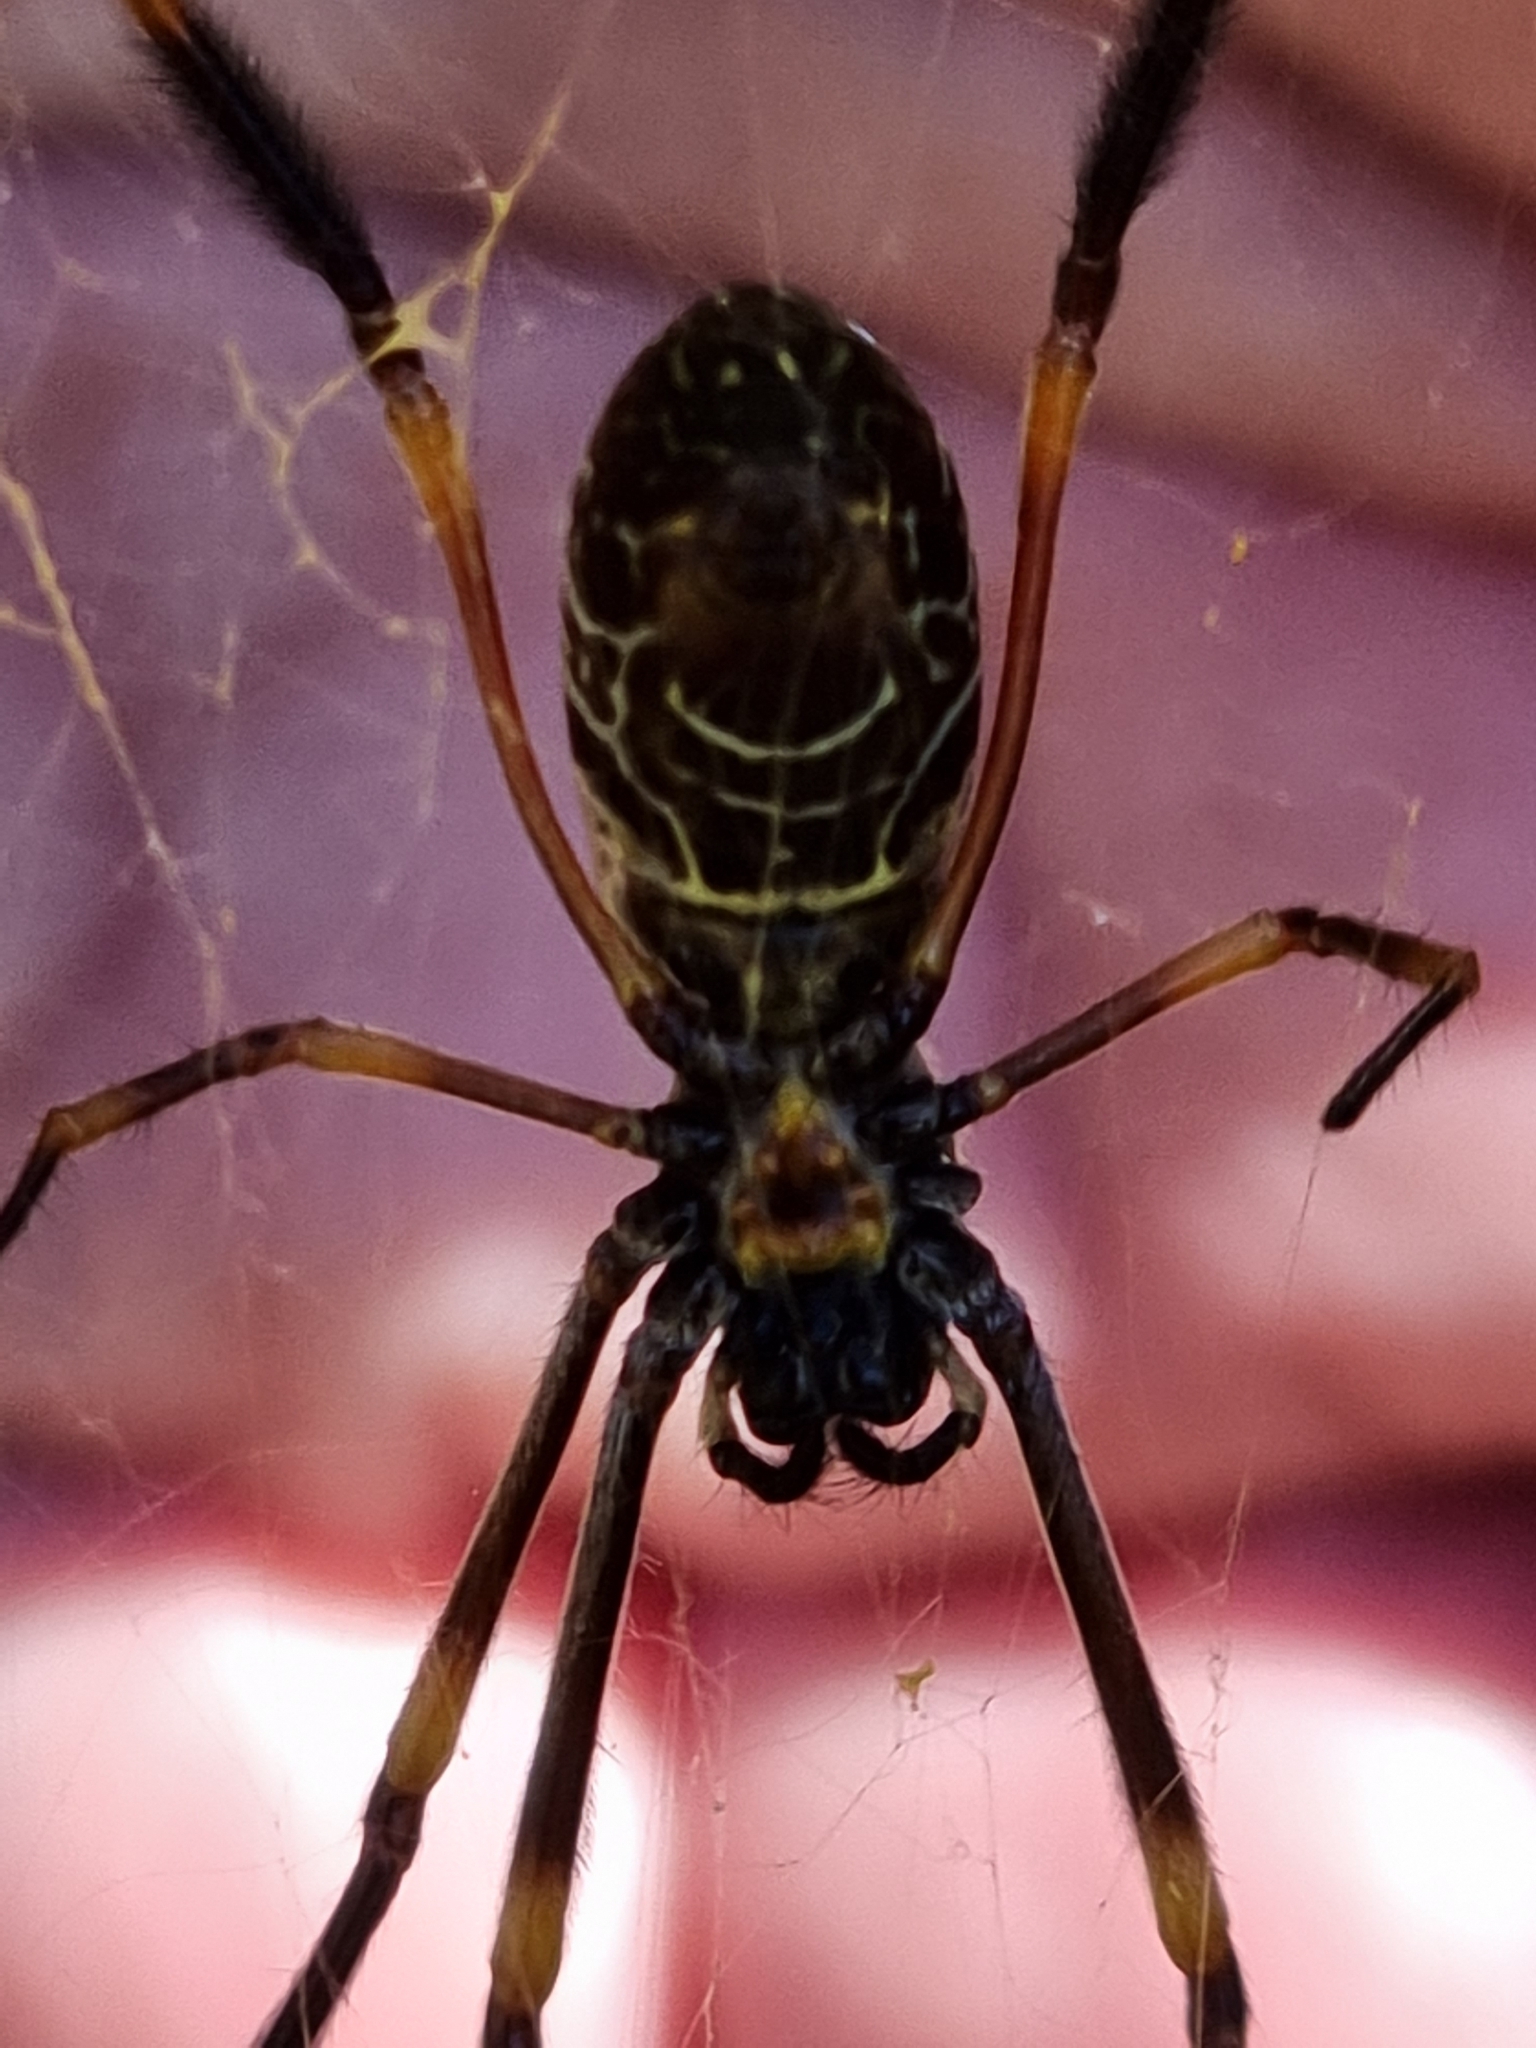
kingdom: Animalia
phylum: Arthropoda
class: Arachnida
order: Araneae
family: Araneidae
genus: Trichonephila
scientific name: Trichonephila plumipes
